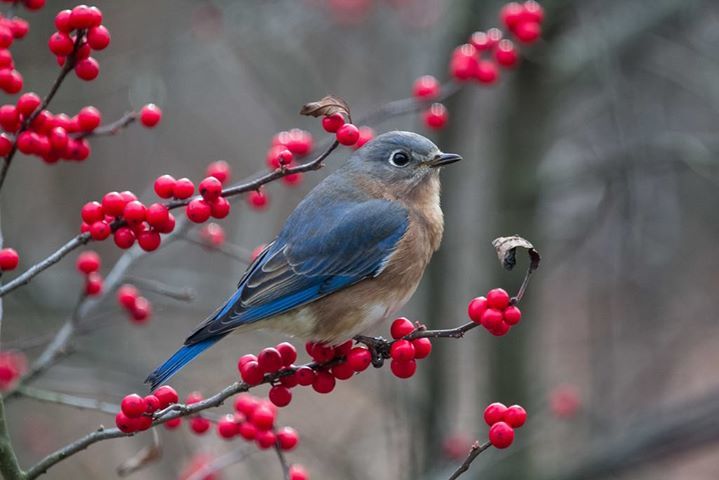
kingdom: Animalia
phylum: Chordata
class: Aves
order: Passeriformes
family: Turdidae
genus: Sialia
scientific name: Sialia sialis
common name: Eastern bluebird
